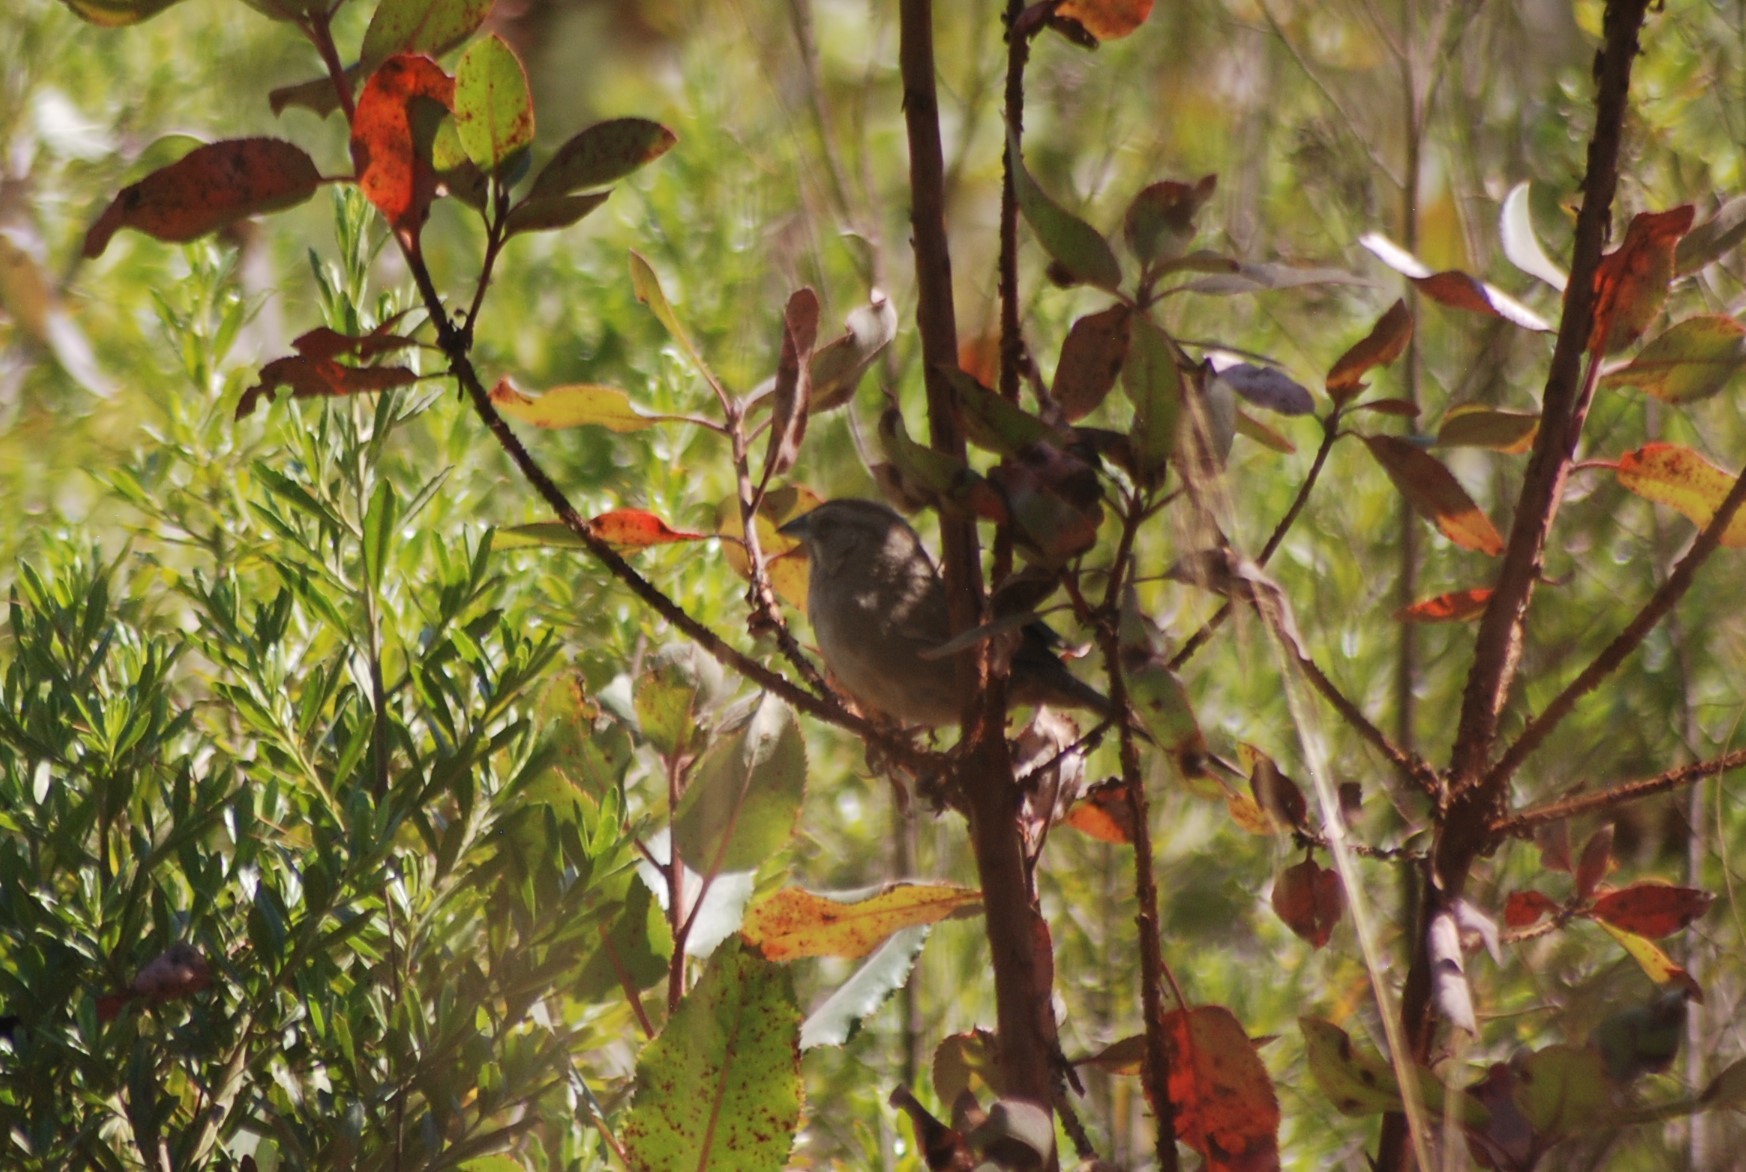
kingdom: Animalia
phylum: Chordata
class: Aves
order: Passeriformes
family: Passerellidae
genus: Aimophila
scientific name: Aimophila rufescens
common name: Rusty sparrow
